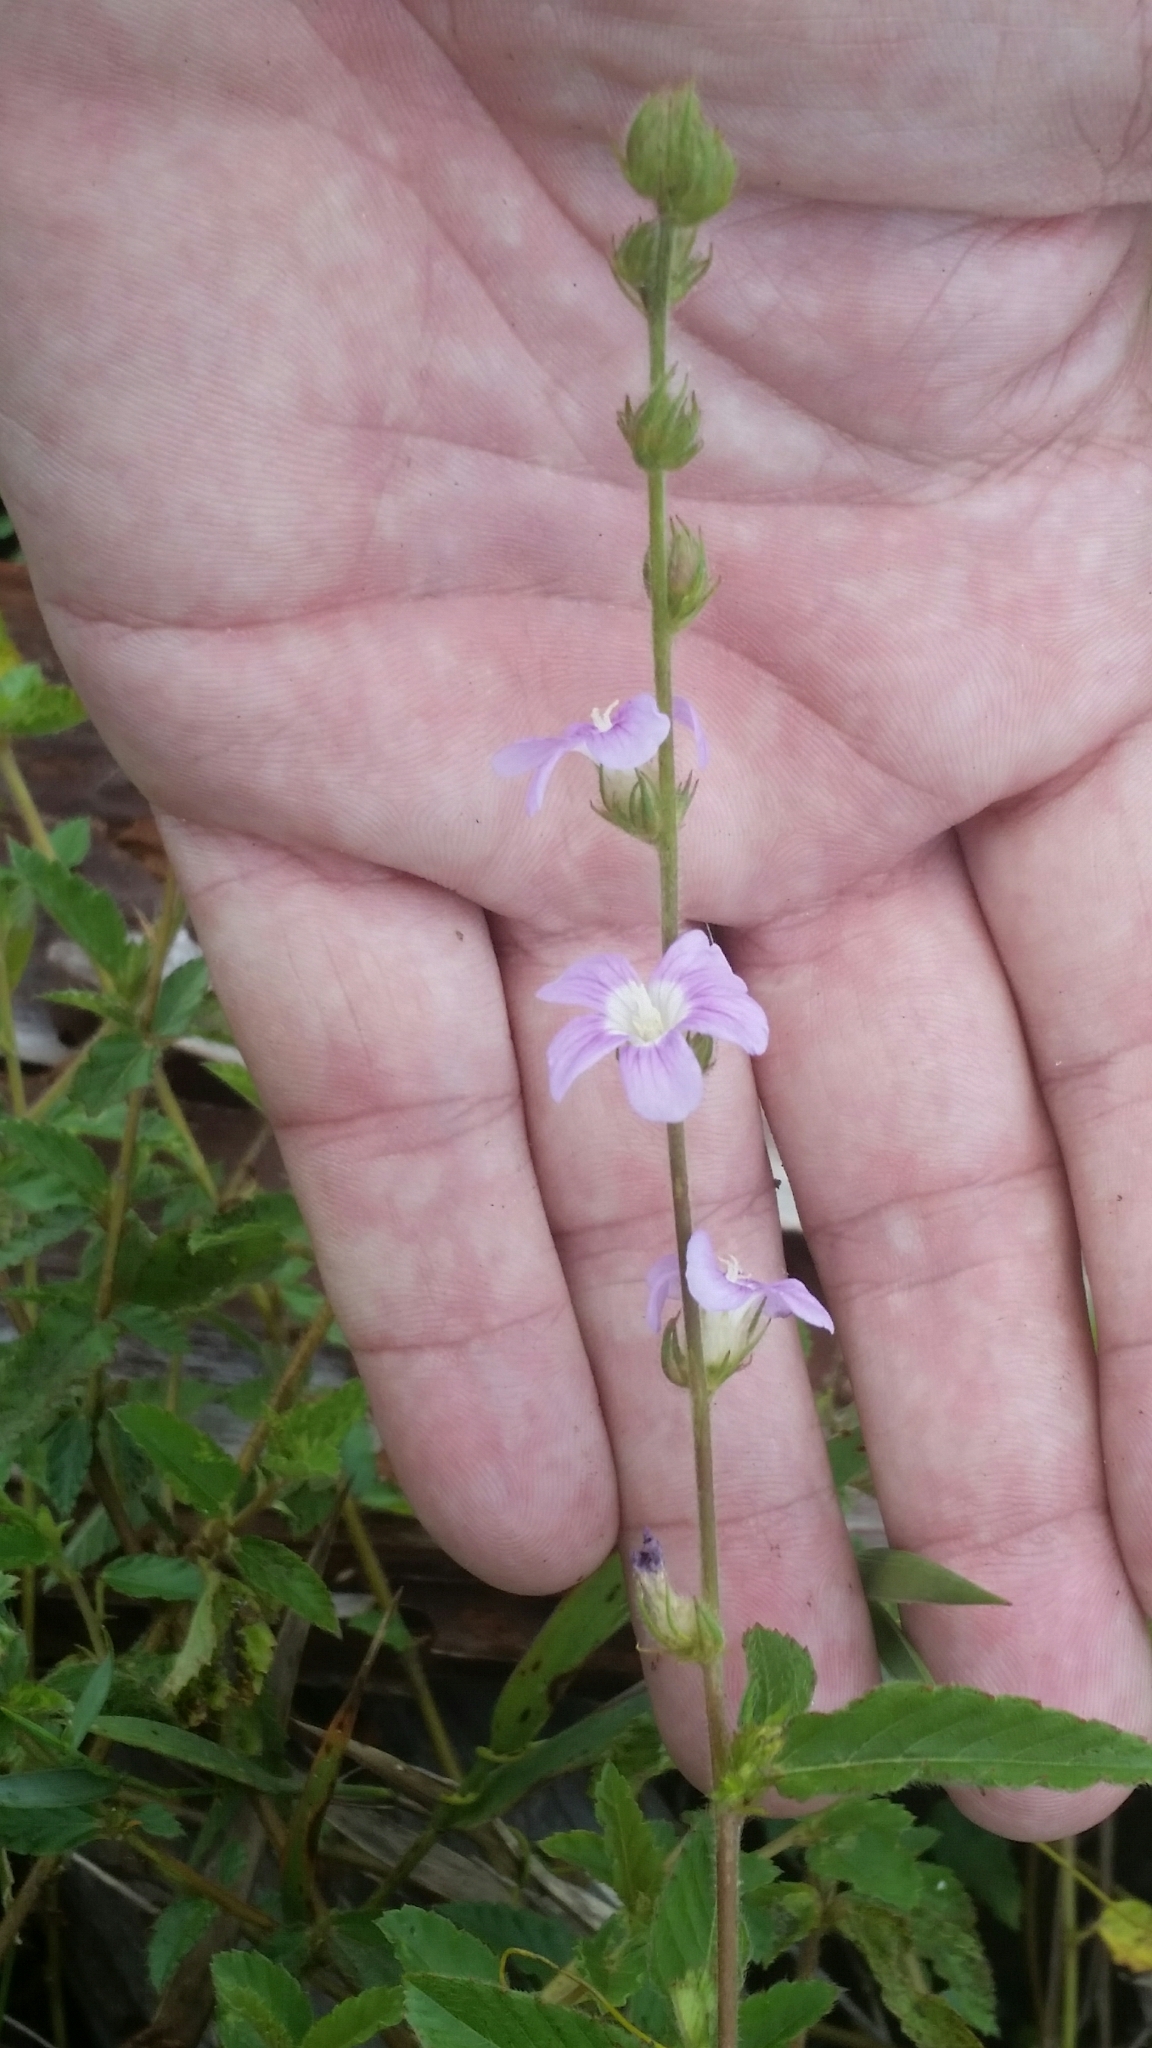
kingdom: Plantae
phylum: Tracheophyta
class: Magnoliopsida
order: Malvales
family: Malvaceae
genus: Melochia
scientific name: Melochia spicata
